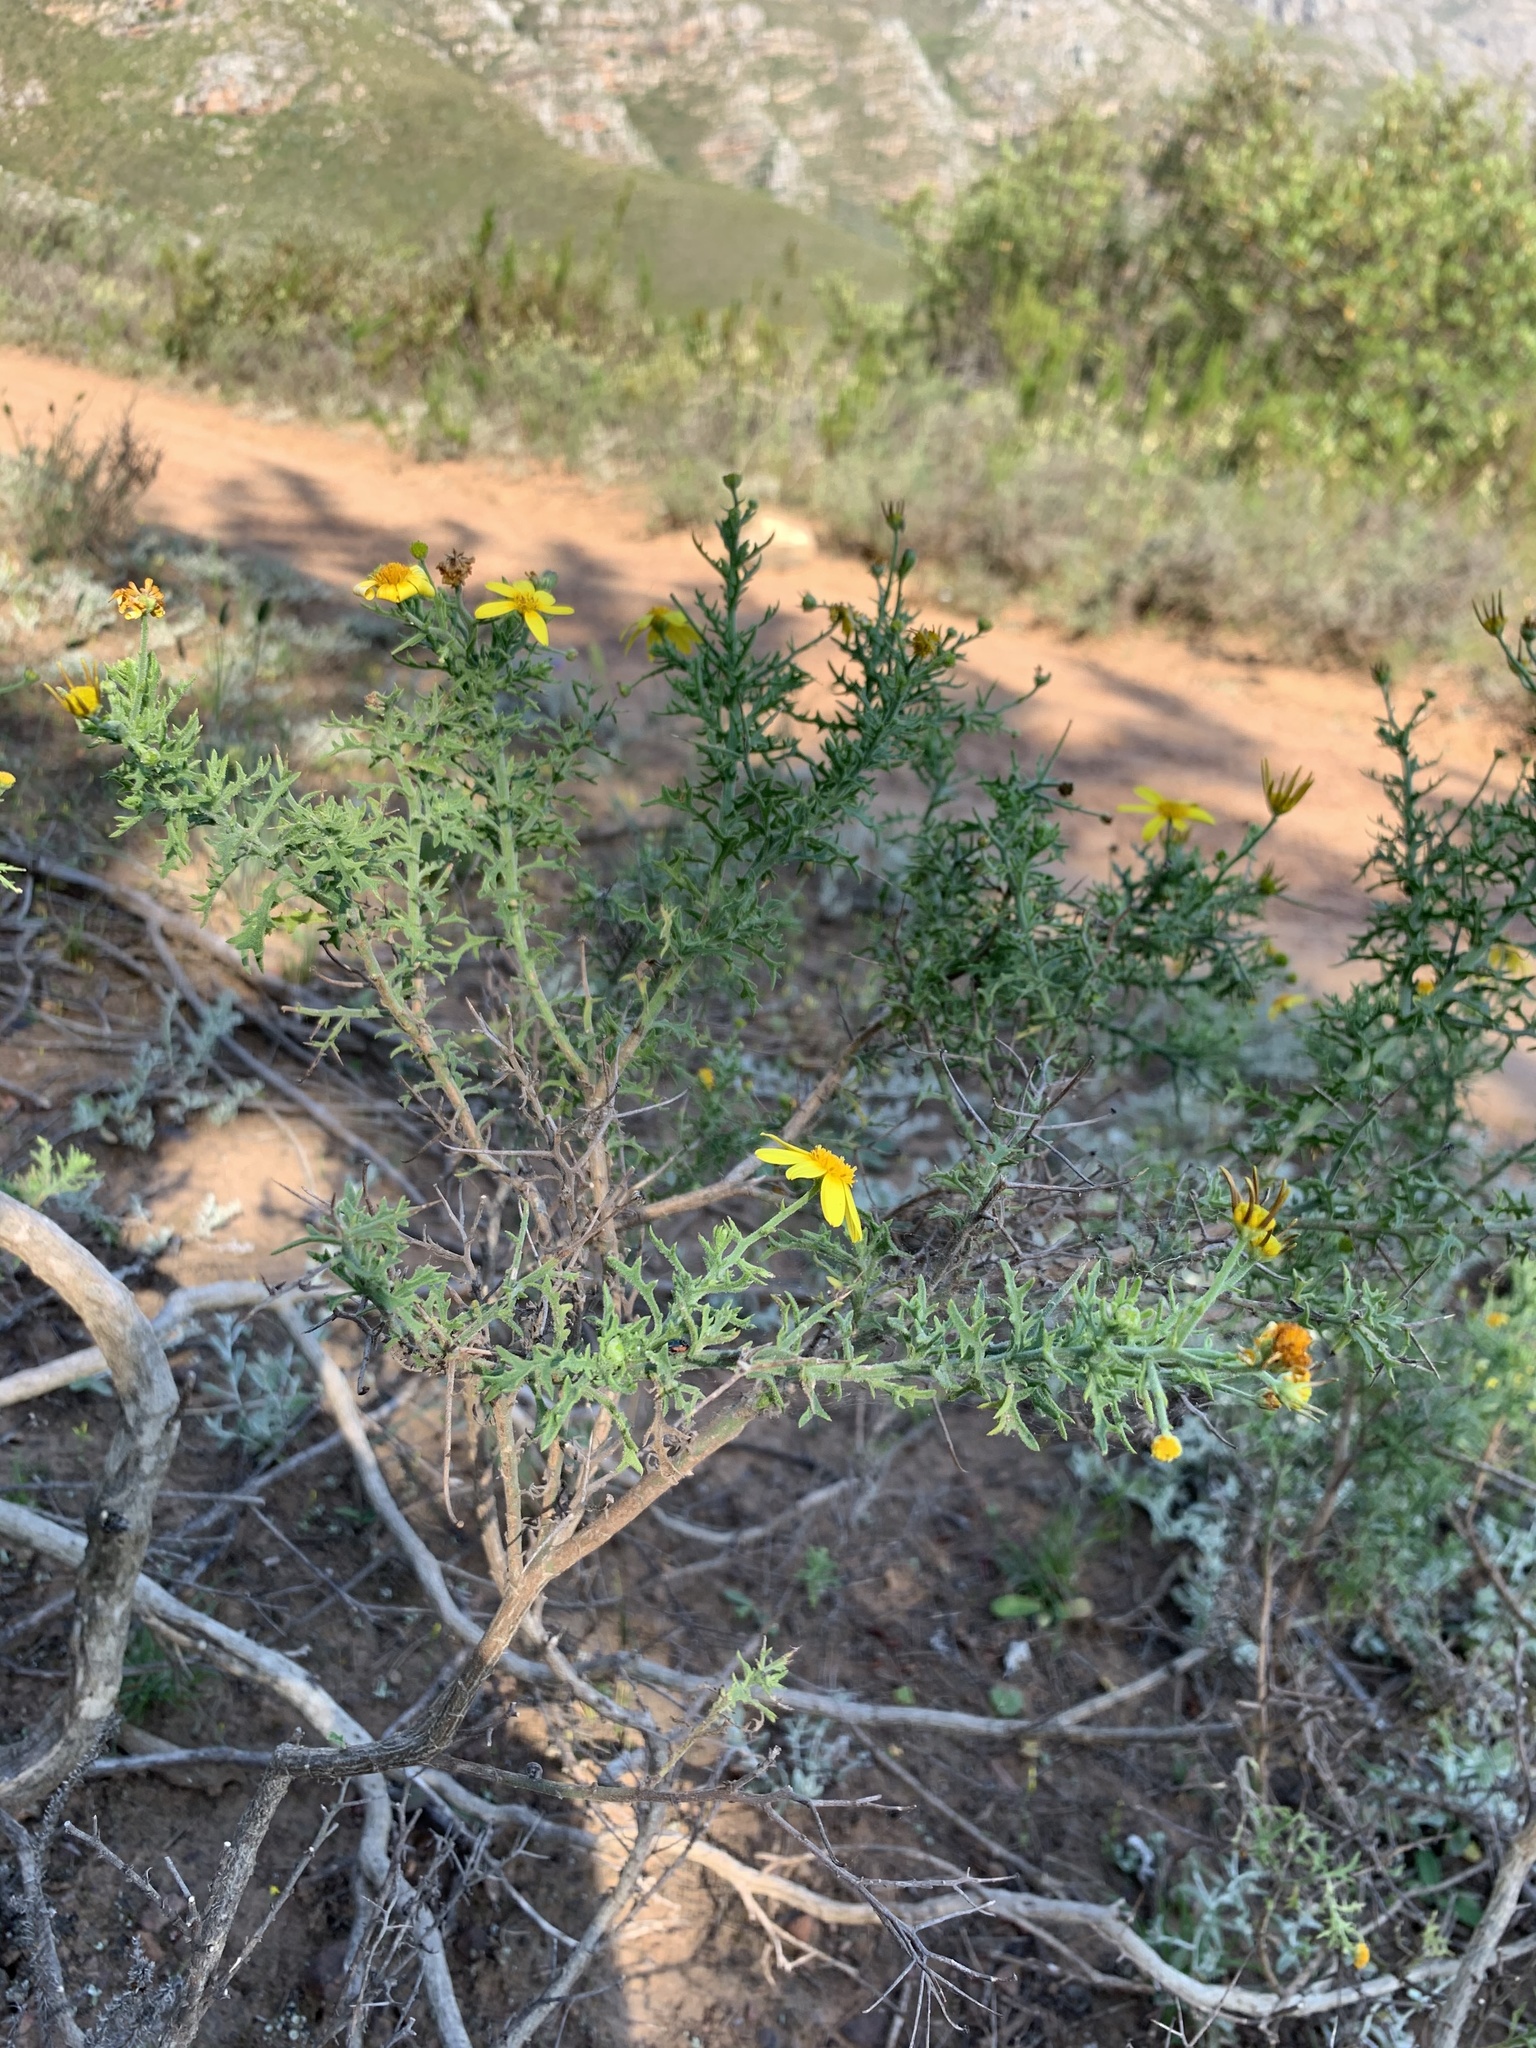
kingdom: Plantae
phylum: Tracheophyta
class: Magnoliopsida
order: Asterales
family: Asteraceae
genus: Osteospermum
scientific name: Osteospermum spinosum
